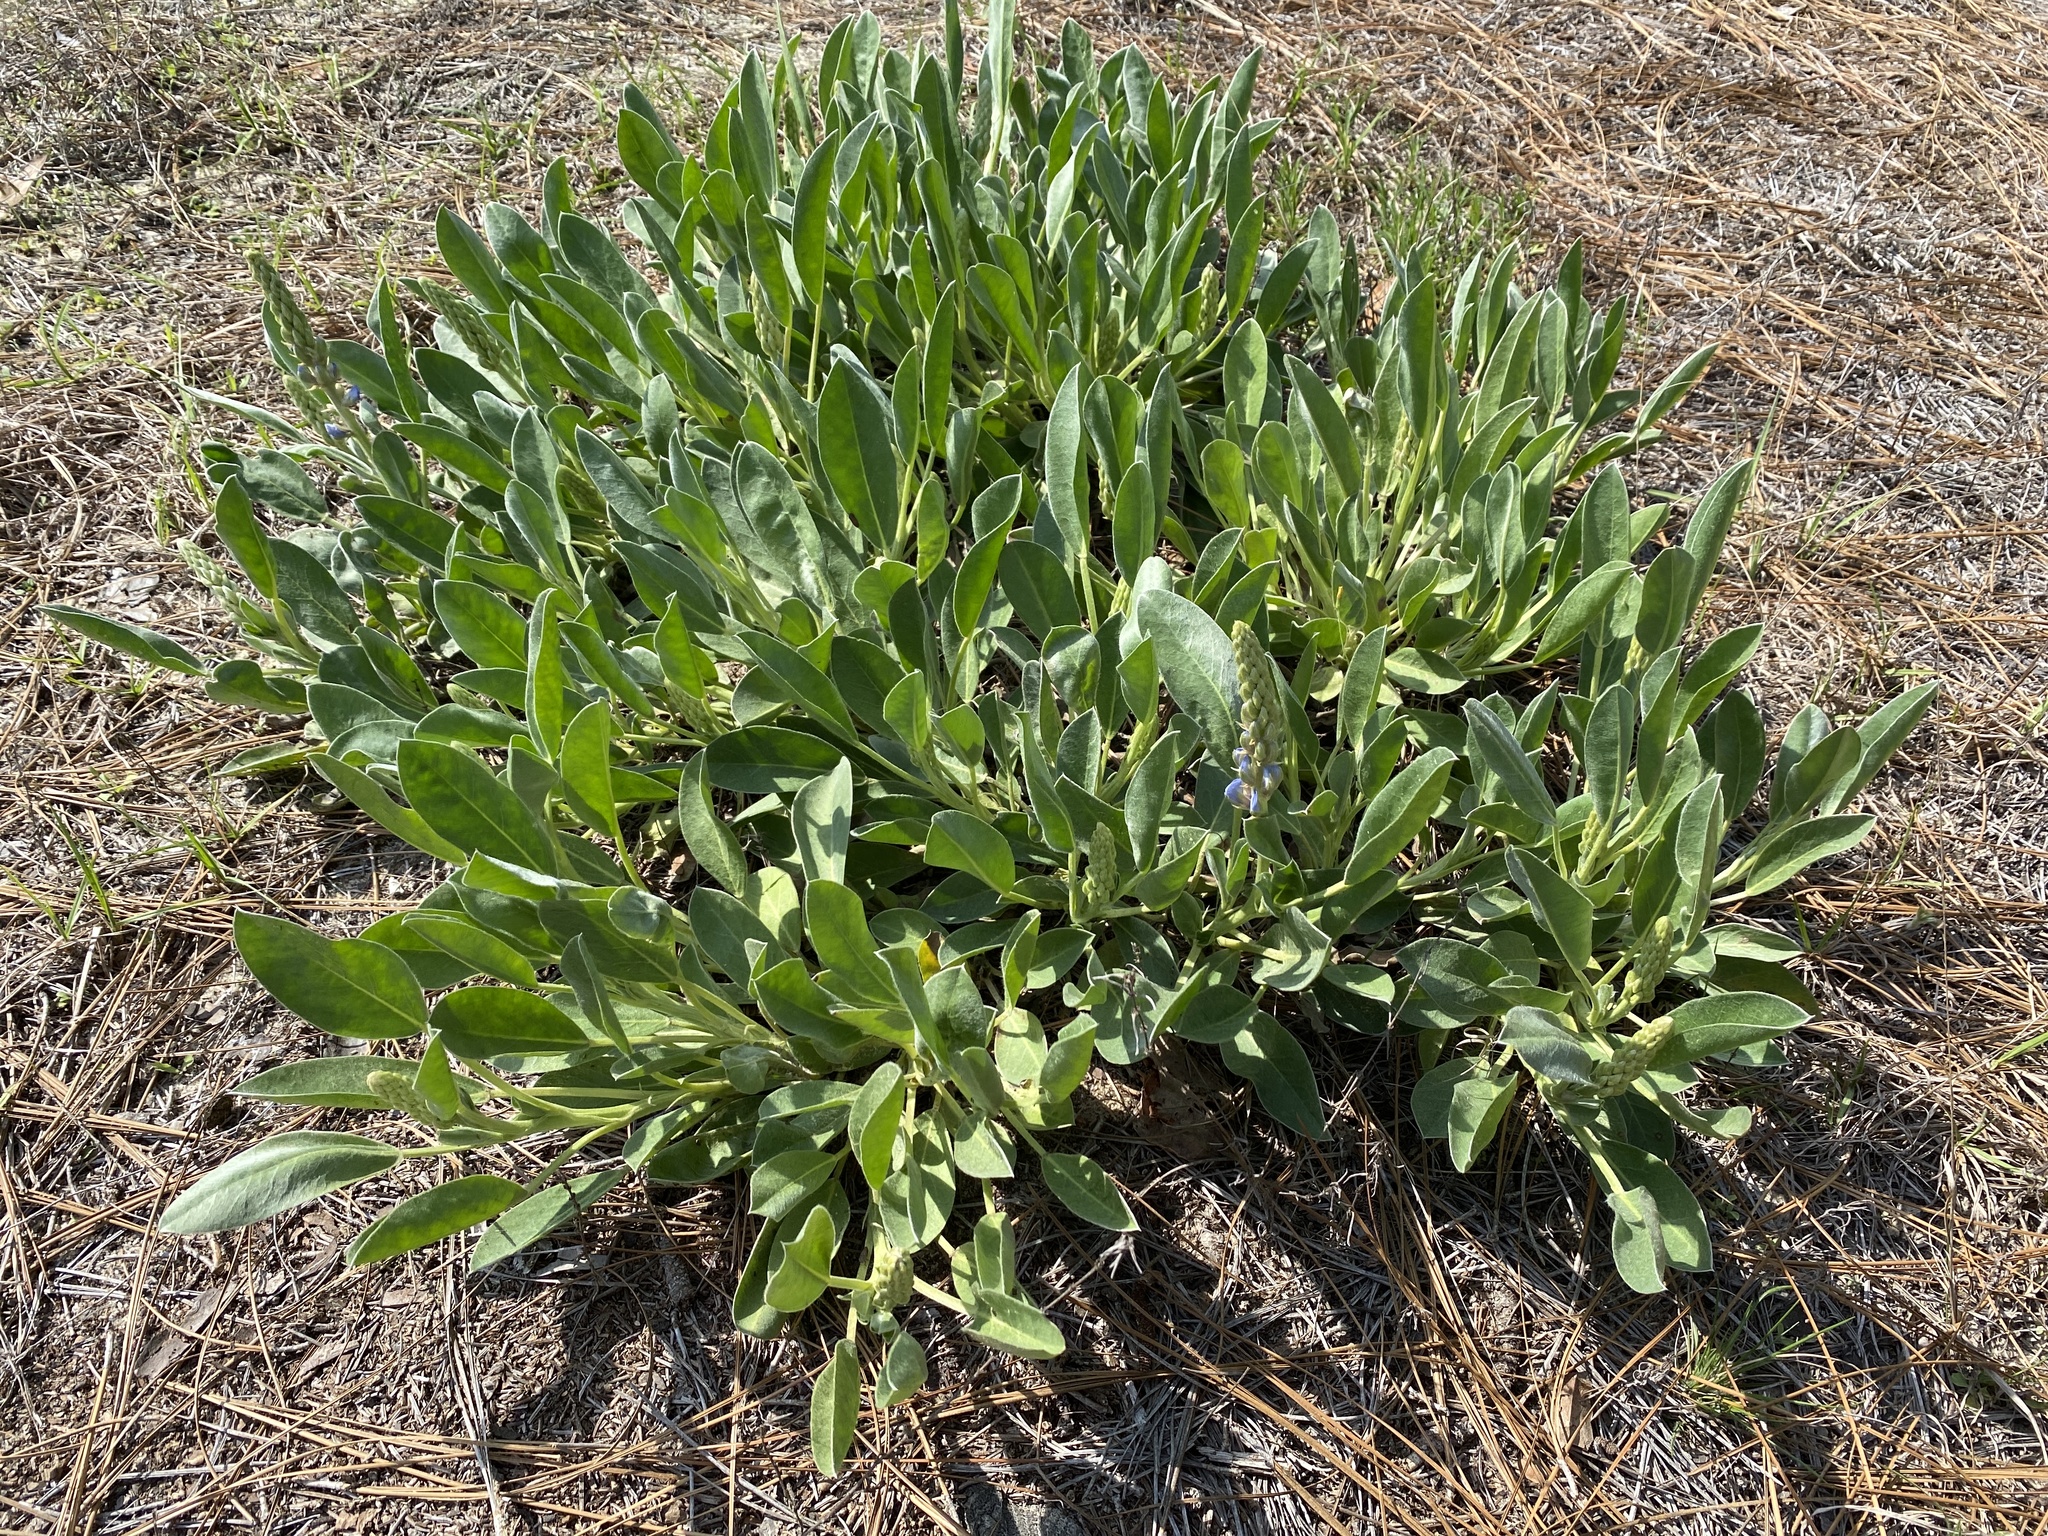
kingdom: Plantae
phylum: Tracheophyta
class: Magnoliopsida
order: Fabales
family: Fabaceae
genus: Lupinus
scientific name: Lupinus diffusus
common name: Oak ridge lupine
